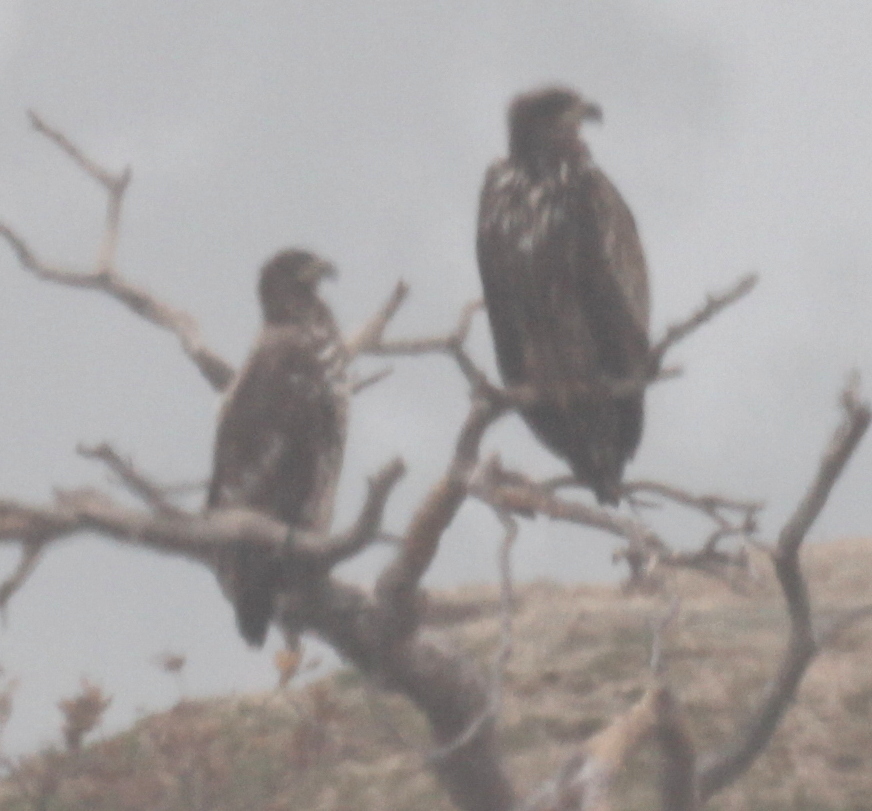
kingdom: Animalia
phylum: Chordata
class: Aves
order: Accipitriformes
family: Accipitridae
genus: Haliaeetus
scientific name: Haliaeetus albicilla
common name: White-tailed eagle
